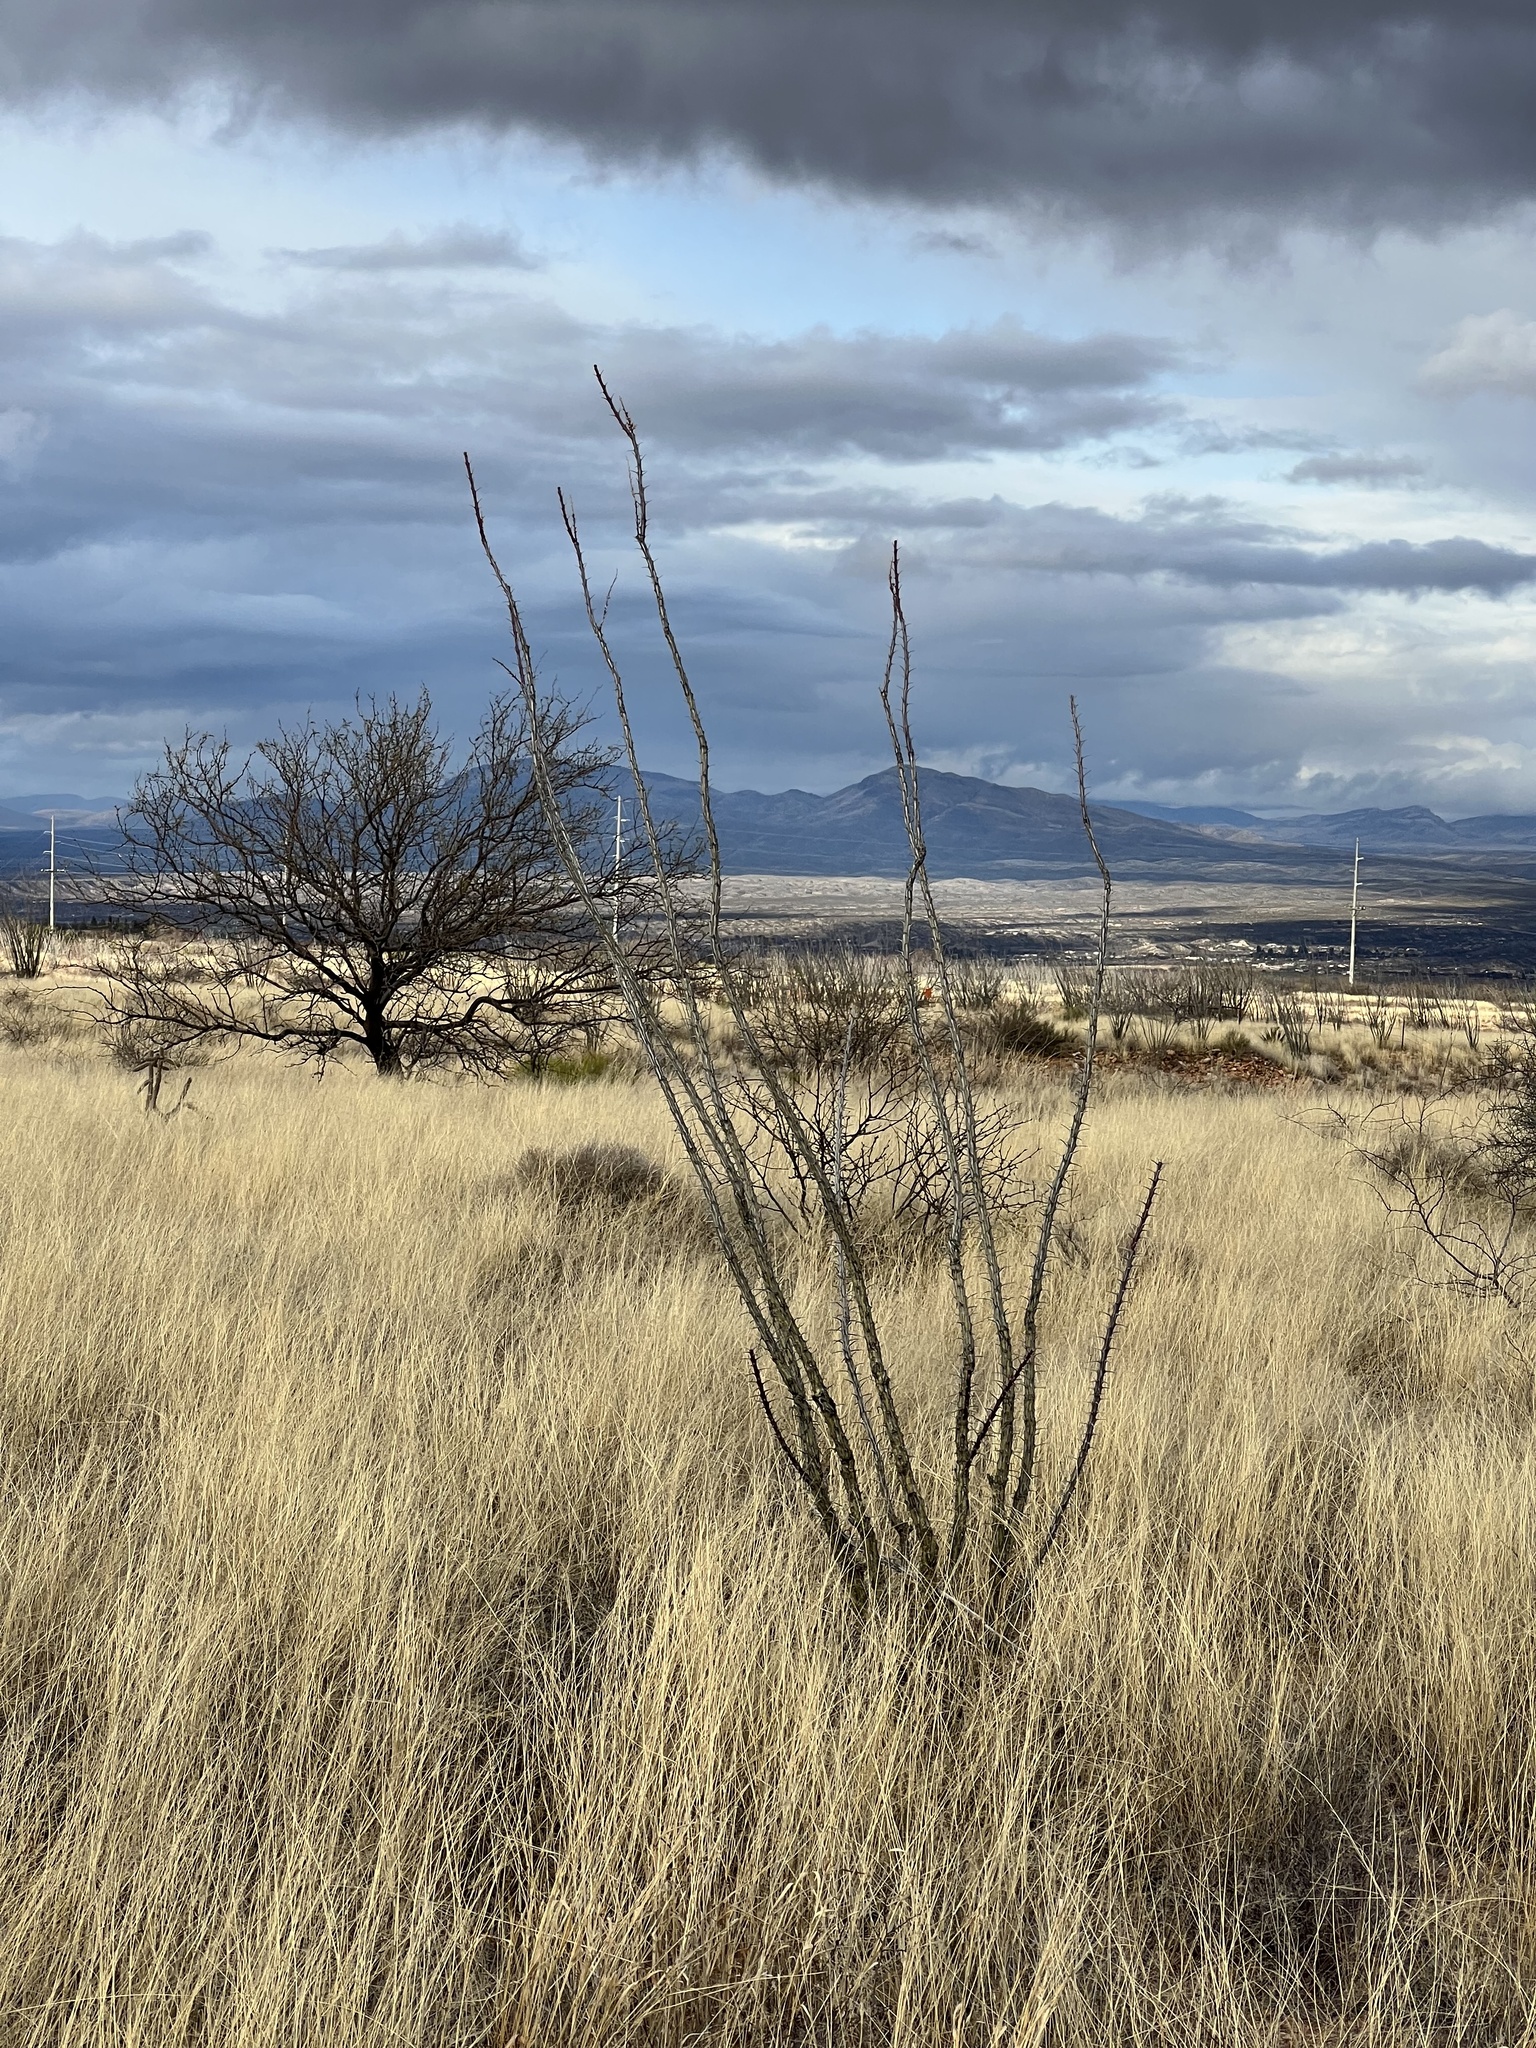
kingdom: Plantae
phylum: Tracheophyta
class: Magnoliopsida
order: Ericales
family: Fouquieriaceae
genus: Fouquieria
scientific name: Fouquieria splendens
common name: Vine-cactus
